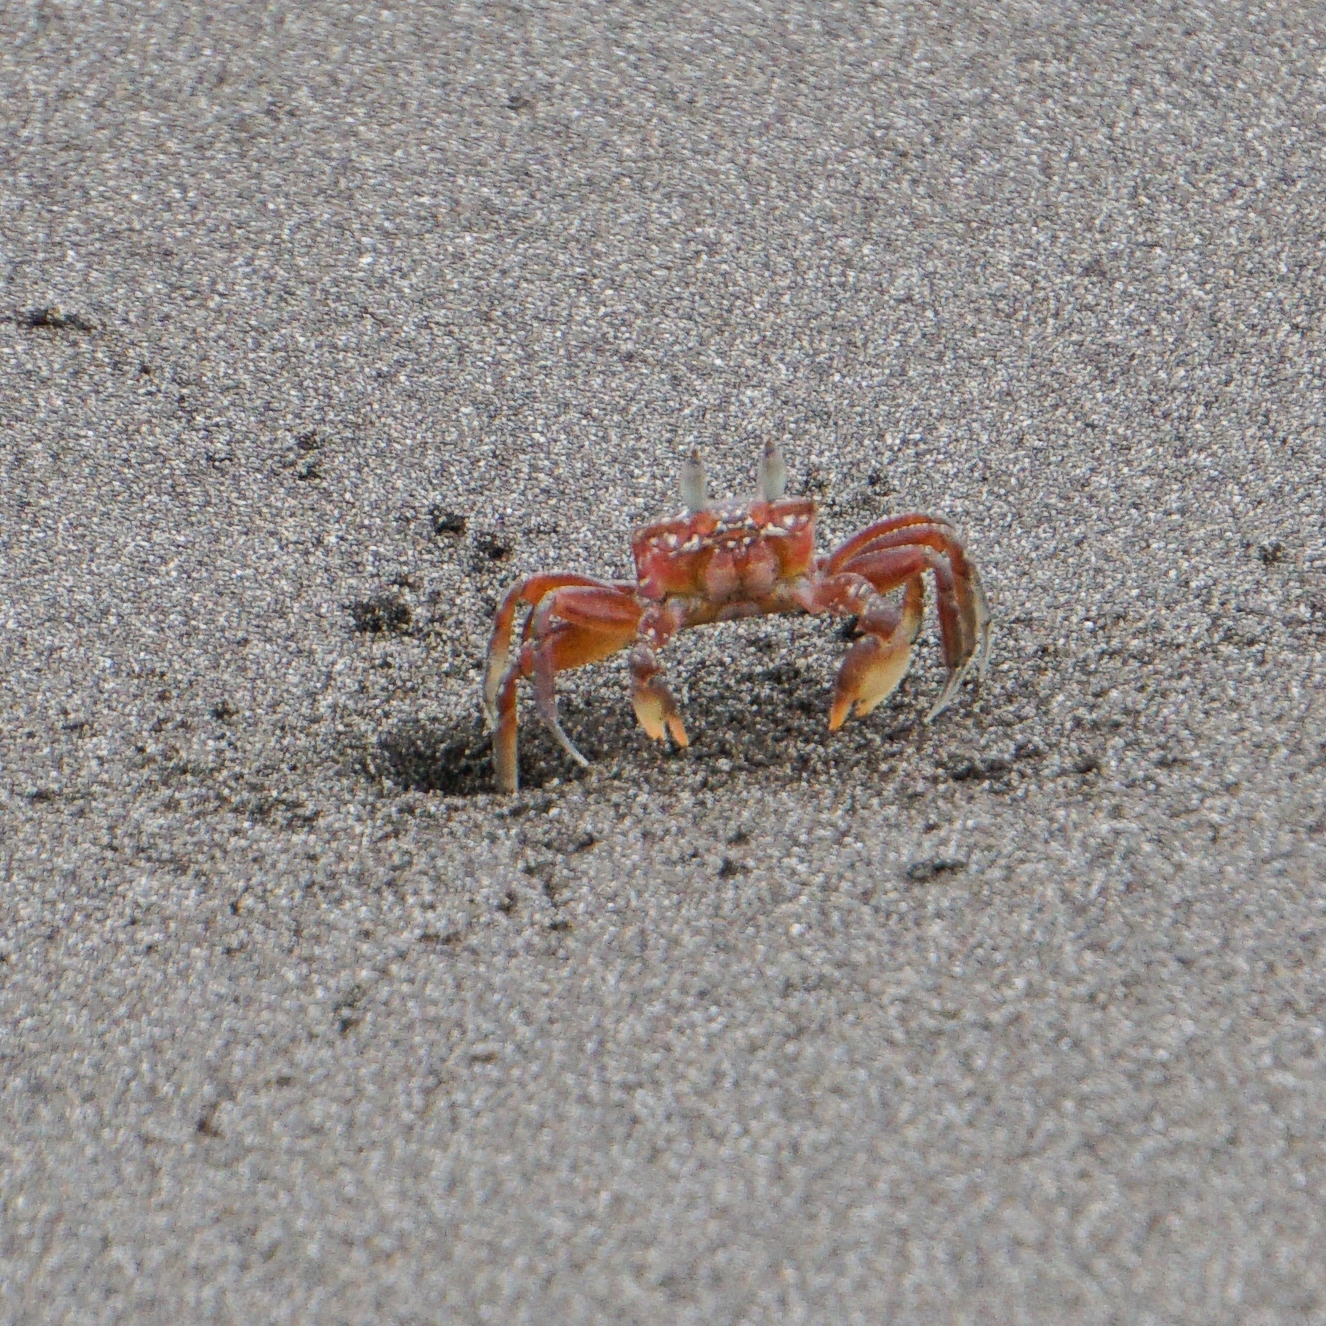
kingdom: Animalia
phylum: Arthropoda
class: Malacostraca
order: Decapoda
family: Ocypodidae
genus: Ocypode
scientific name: Ocypode gaudichaudii
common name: Pacific ghost crab
